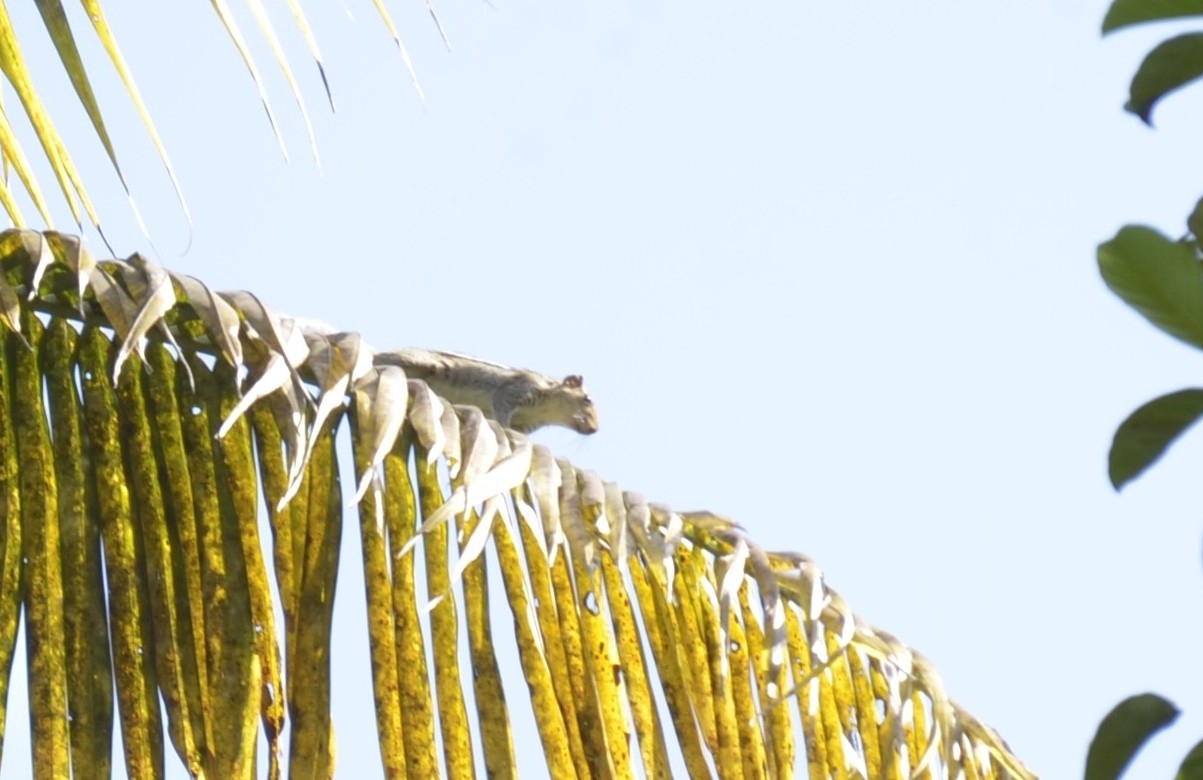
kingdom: Animalia
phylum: Chordata
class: Mammalia
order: Rodentia
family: Sciuridae
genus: Funambulus
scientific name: Funambulus tristriatus
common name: Jungle palm squirrel
